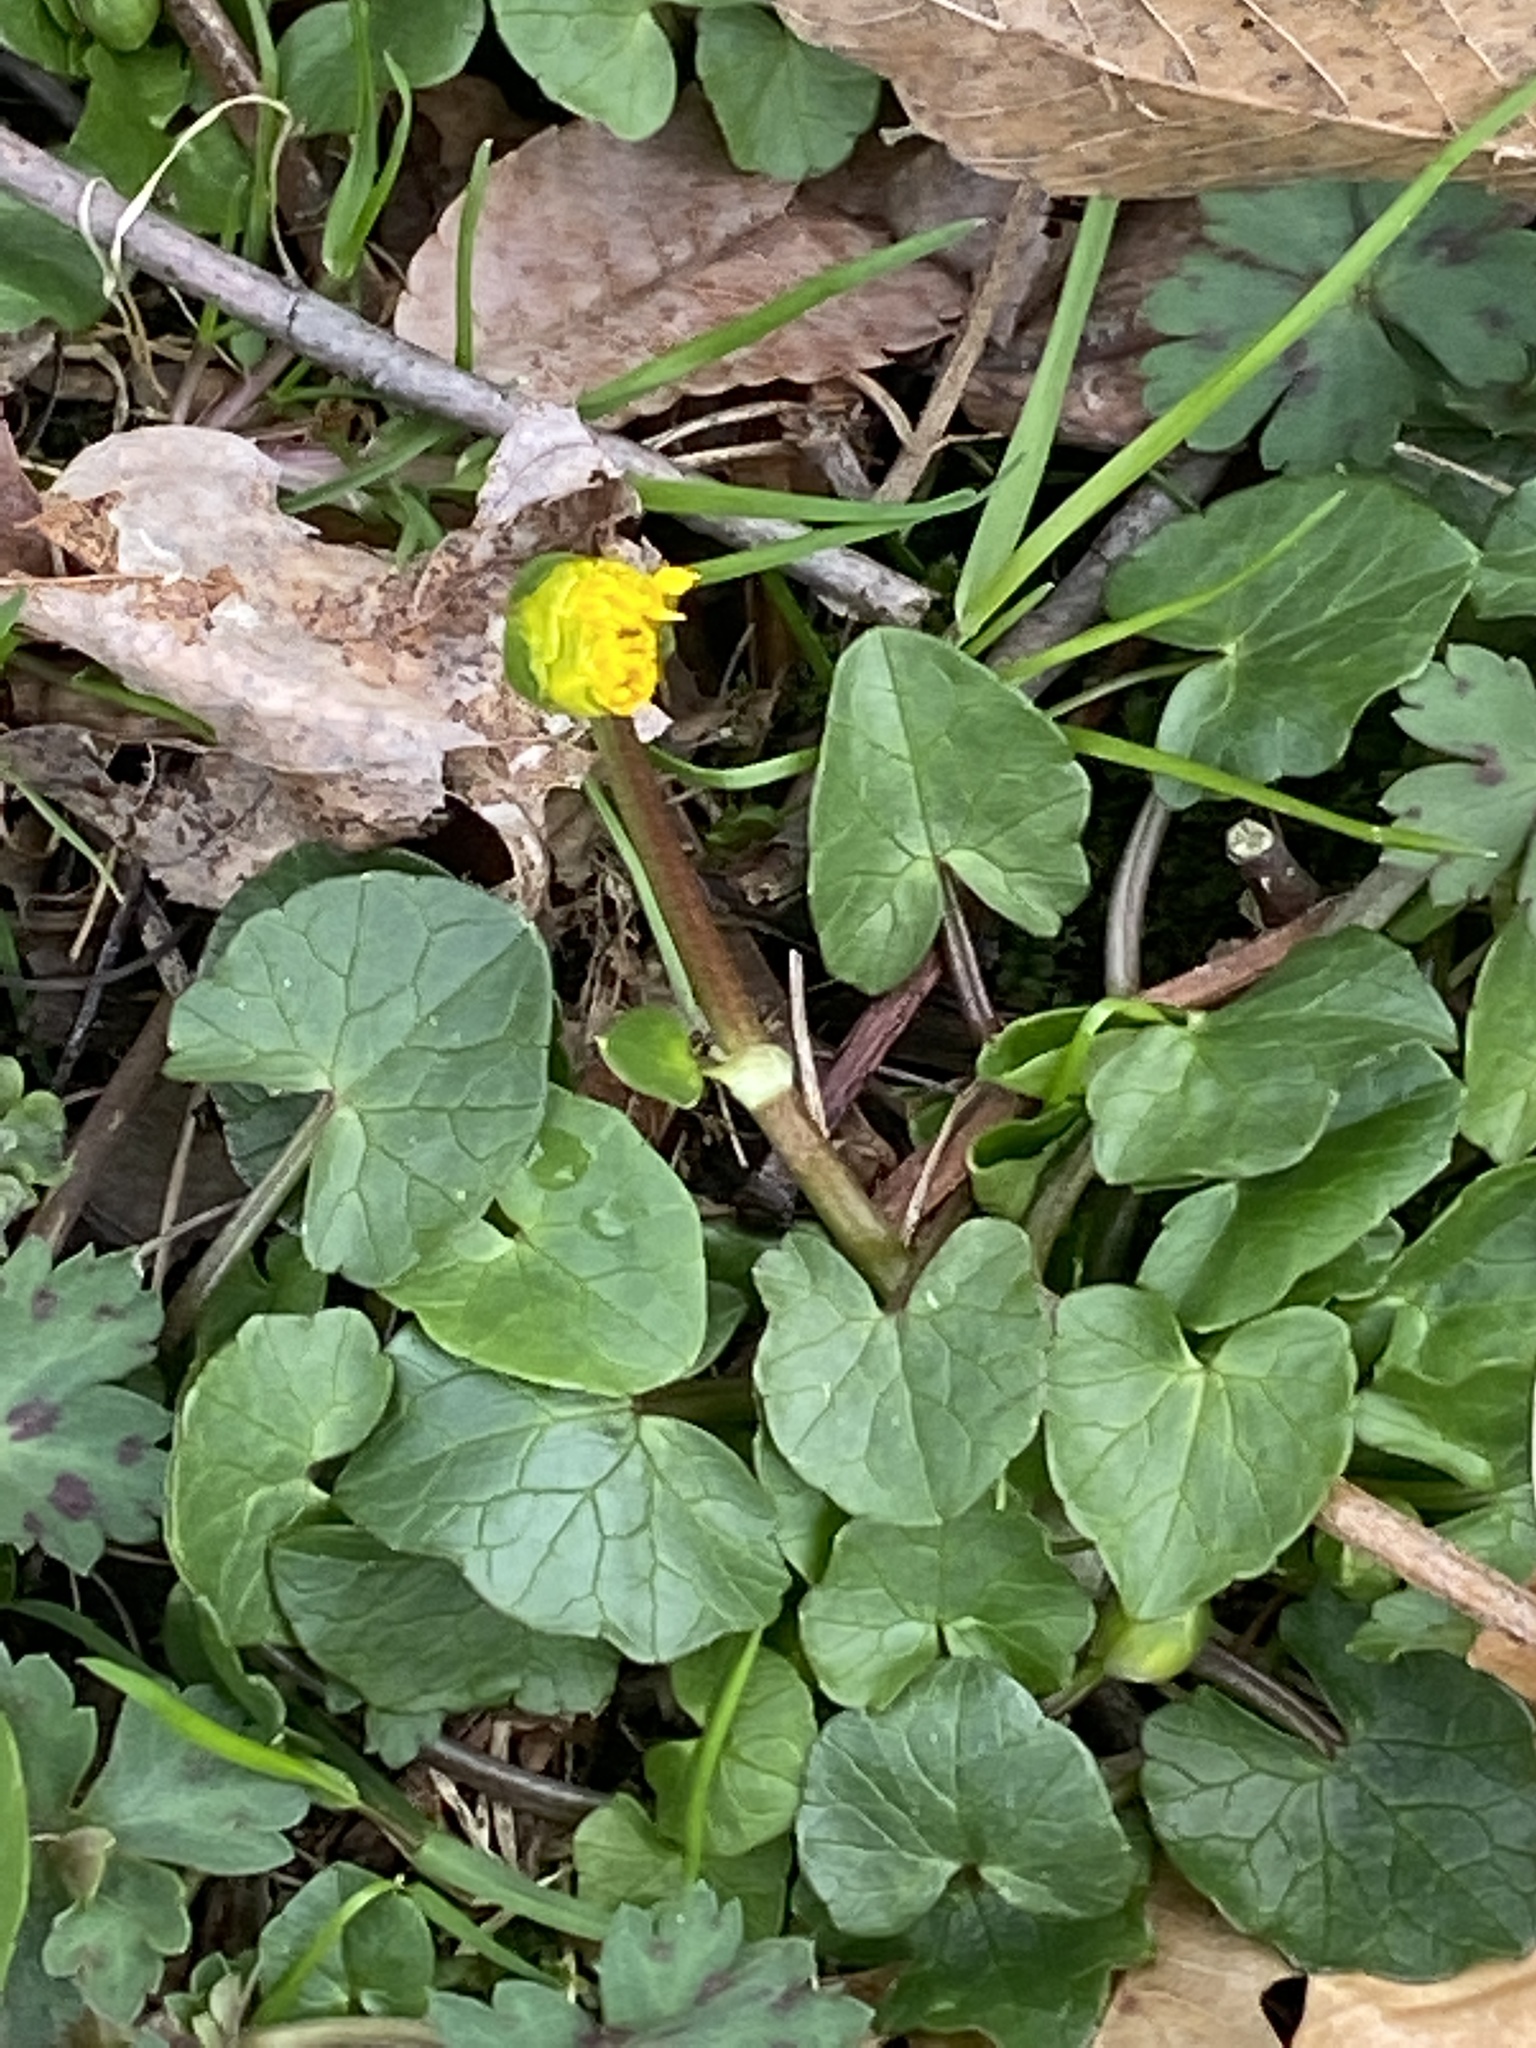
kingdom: Plantae
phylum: Tracheophyta
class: Magnoliopsida
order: Ranunculales
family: Ranunculaceae
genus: Ficaria
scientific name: Ficaria verna
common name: Lesser celandine
